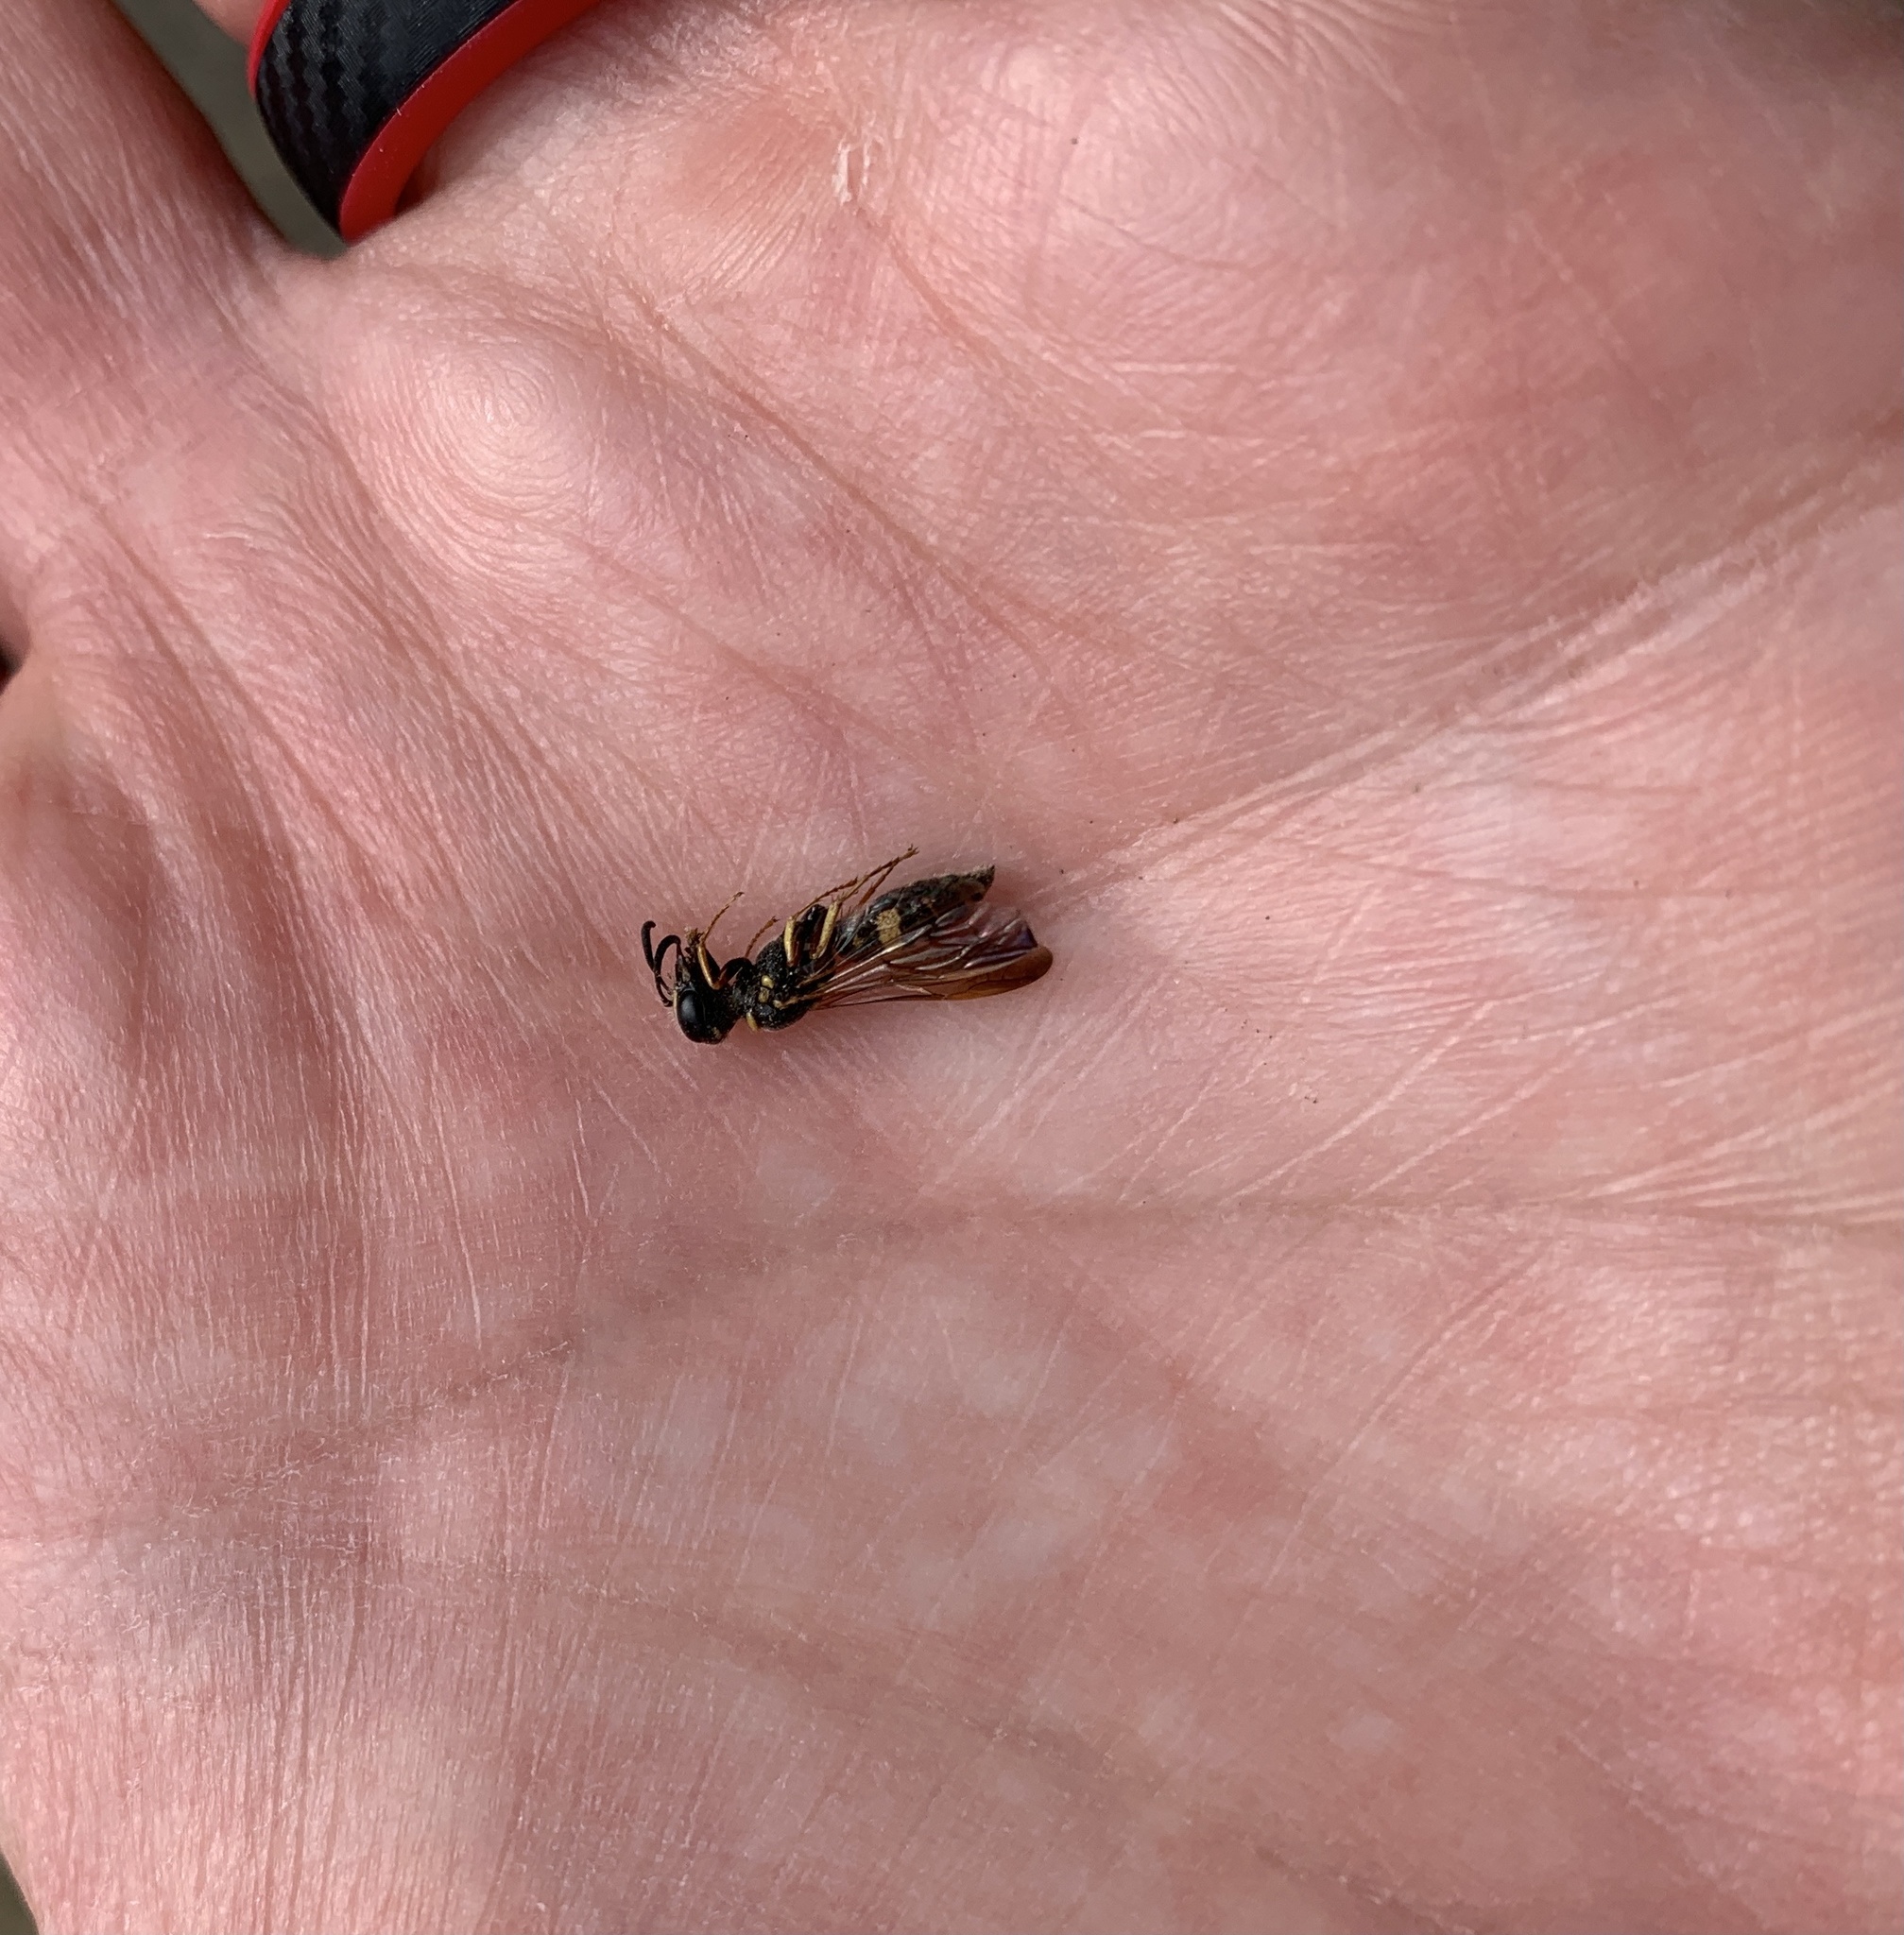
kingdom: Animalia
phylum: Arthropoda
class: Insecta
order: Hymenoptera
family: Crabronidae
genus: Philanthus
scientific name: Philanthus gibbosus
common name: Humped beewolf
